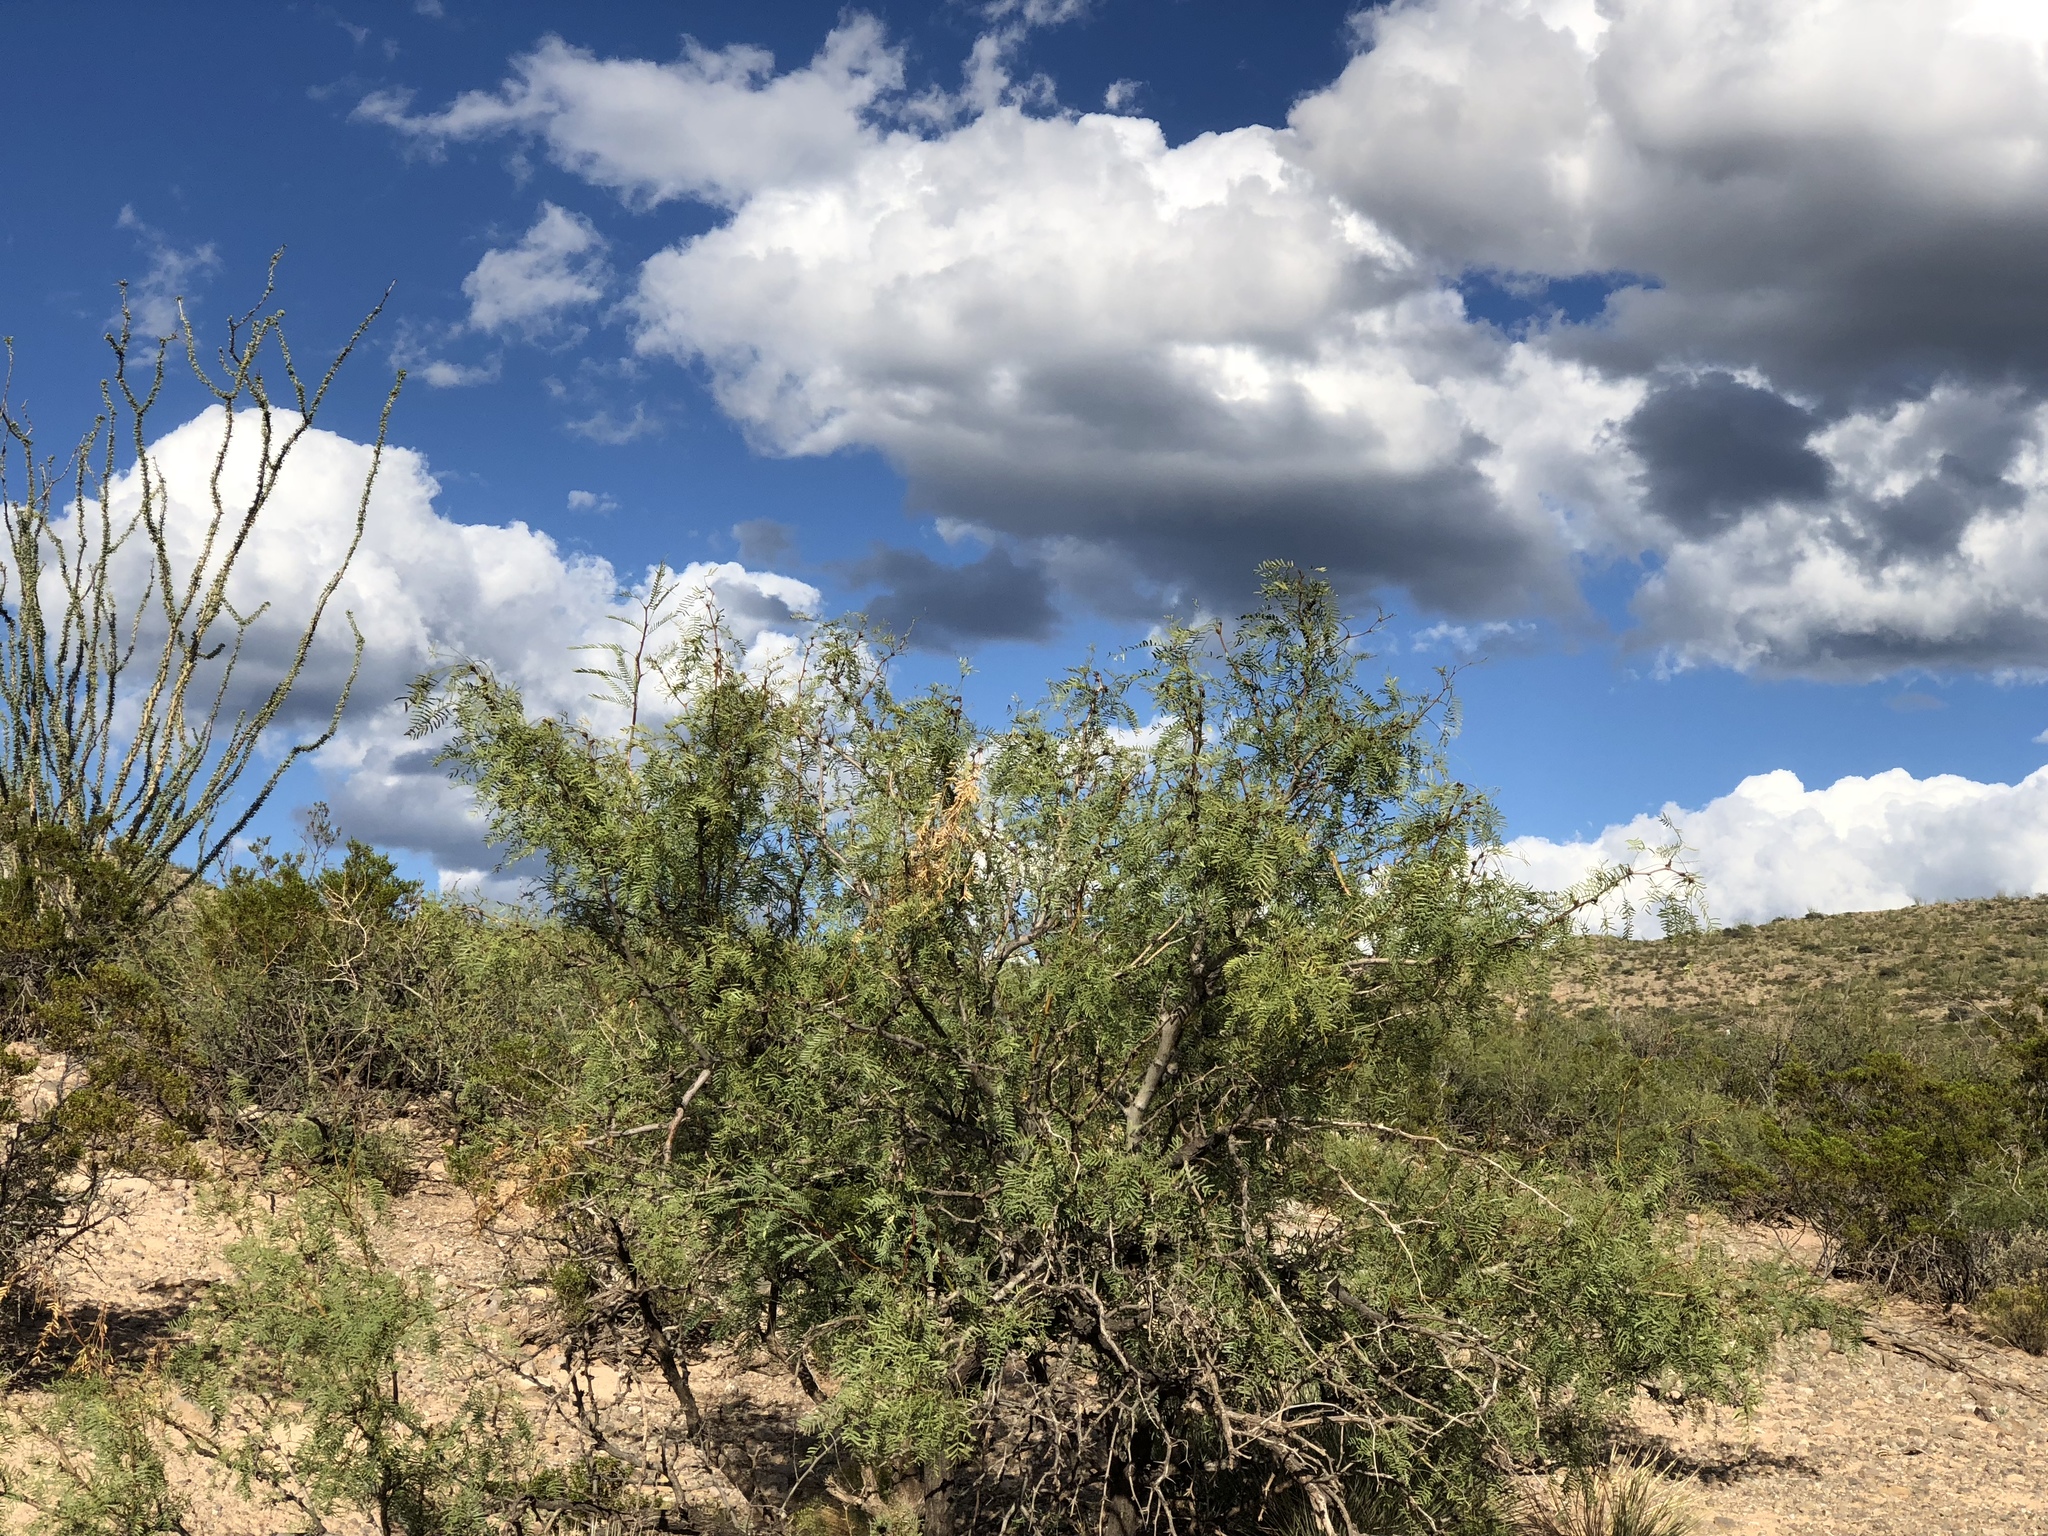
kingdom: Plantae
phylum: Tracheophyta
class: Magnoliopsida
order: Fabales
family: Fabaceae
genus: Prosopis
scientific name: Prosopis glandulosa
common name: Honey mesquite
